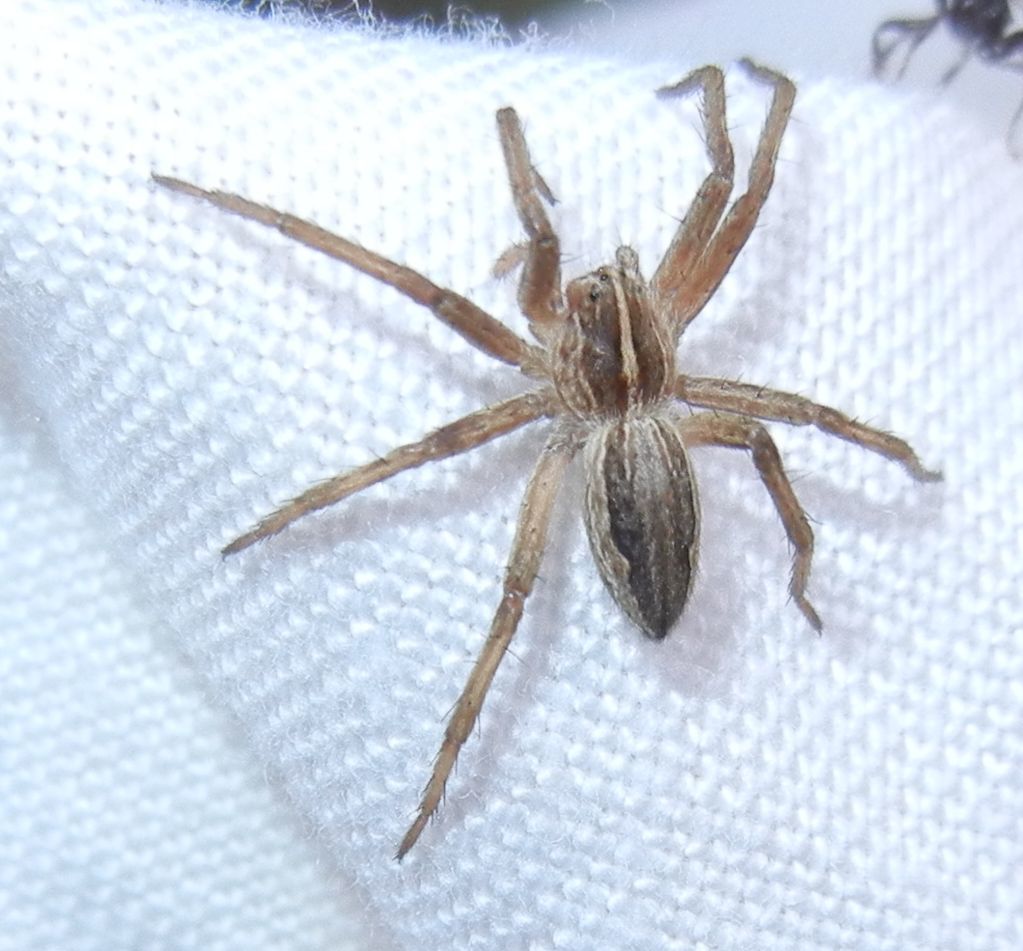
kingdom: Animalia
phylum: Arthropoda
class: Arachnida
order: Araneae
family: Pisauridae
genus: Pisaura
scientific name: Pisaura mirabilis
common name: Tent spider
